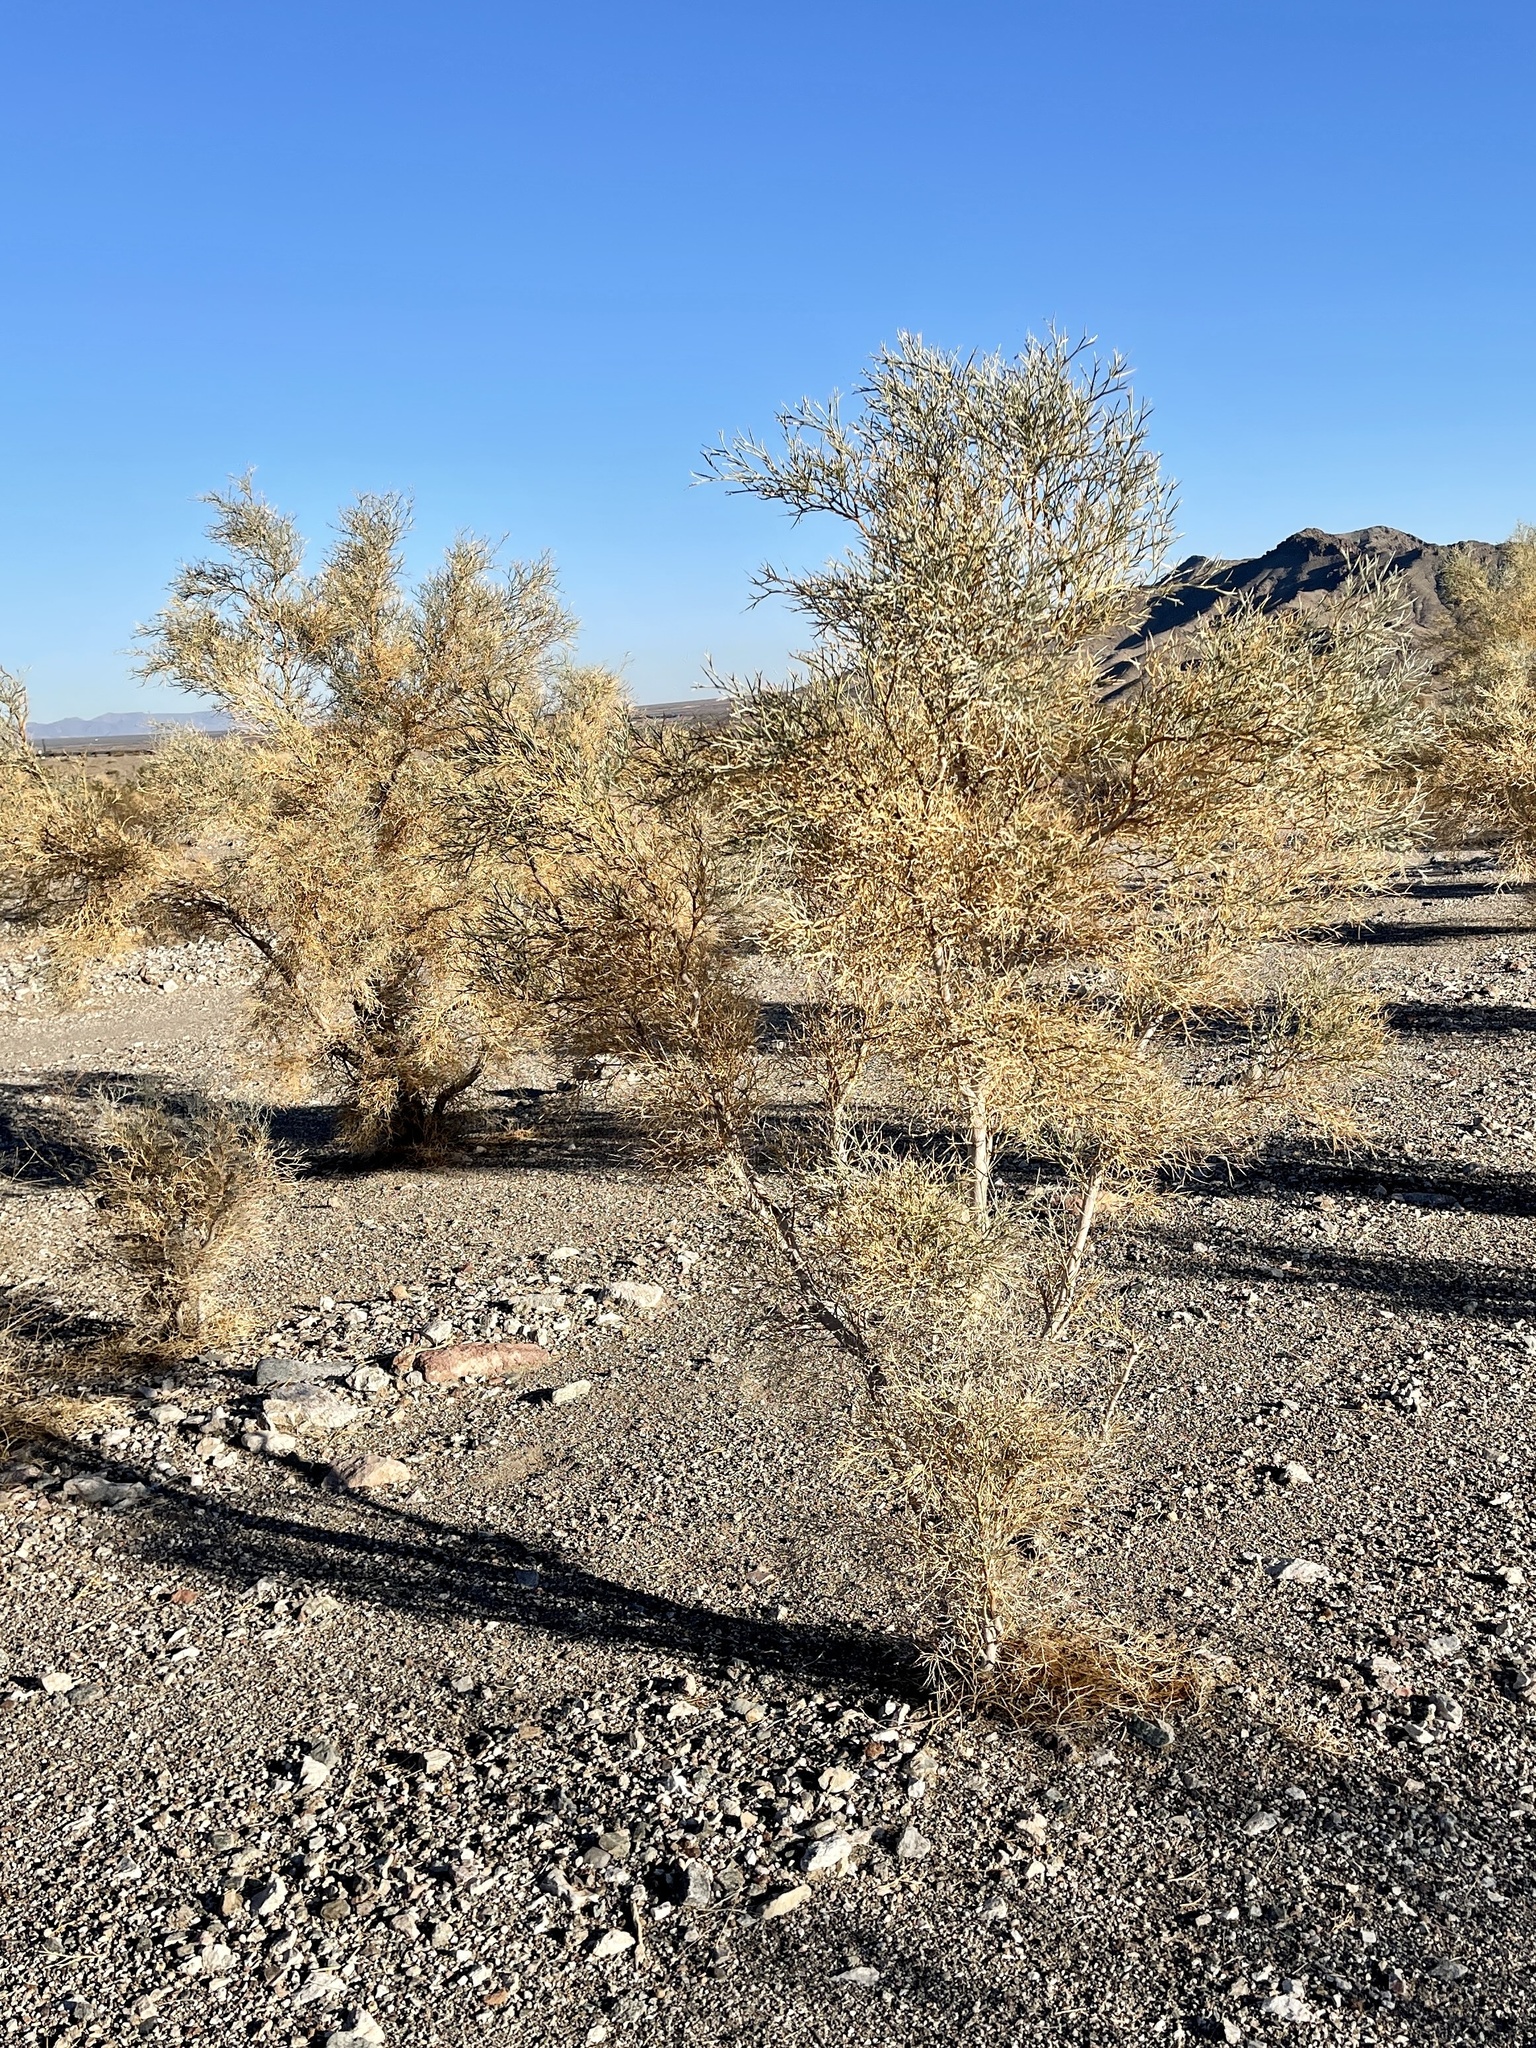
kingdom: Plantae
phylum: Tracheophyta
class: Magnoliopsida
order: Fabales
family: Fabaceae
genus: Psorothamnus
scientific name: Psorothamnus spinosus
